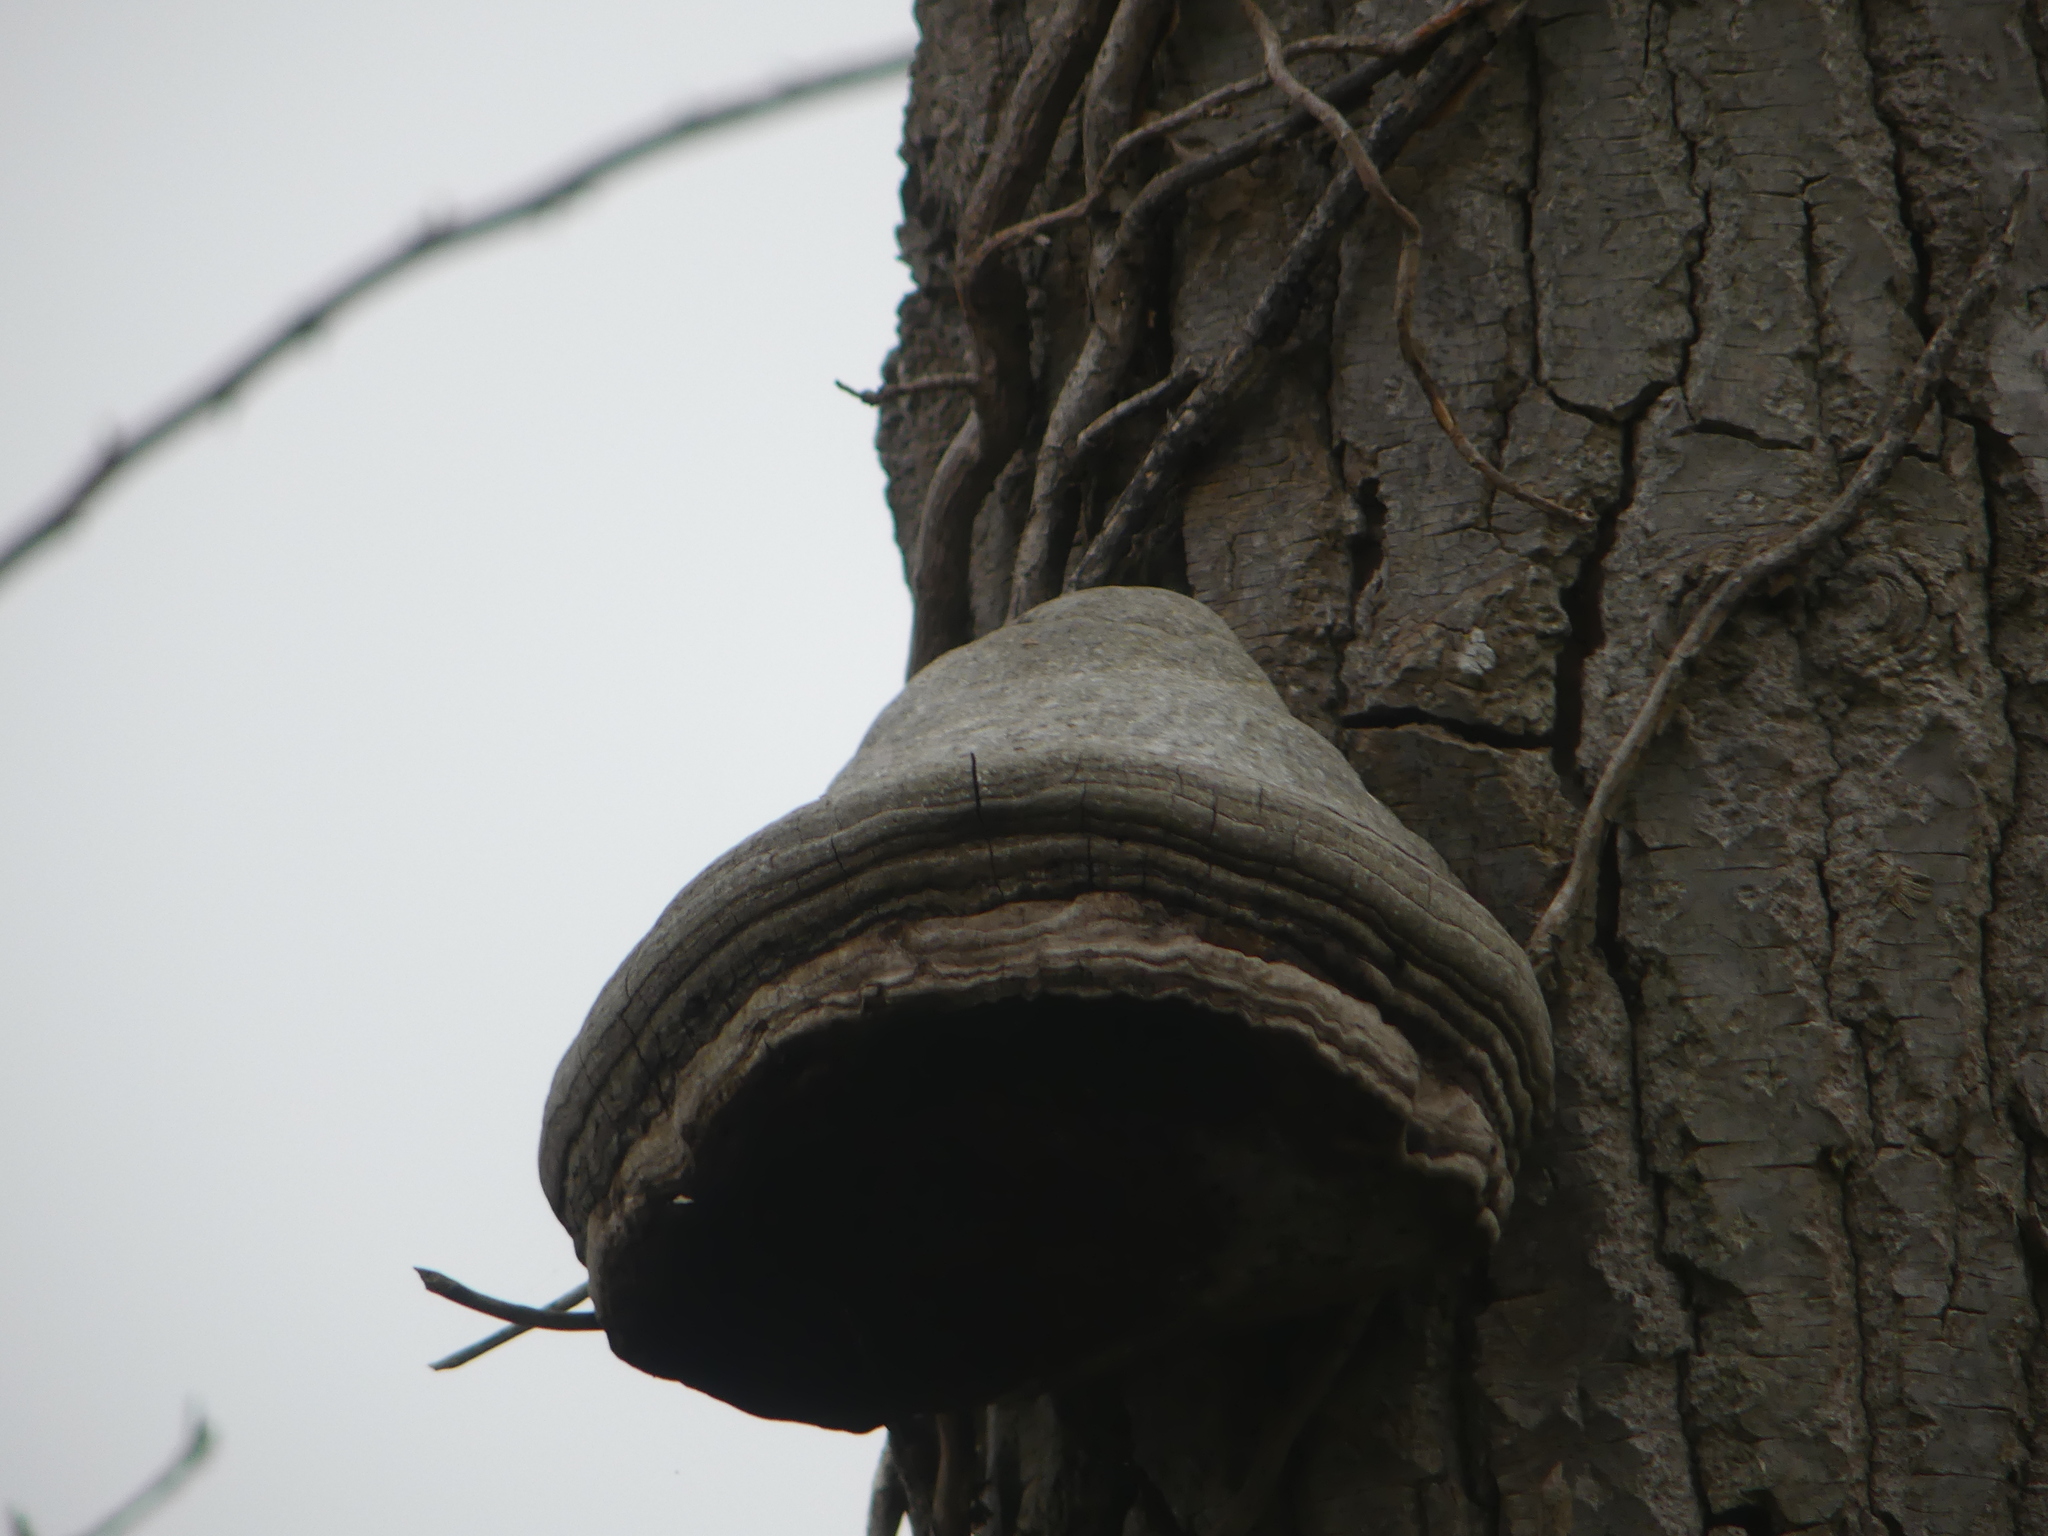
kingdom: Fungi
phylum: Basidiomycota
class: Agaricomycetes
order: Polyporales
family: Polyporaceae
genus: Fomes
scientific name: Fomes fomentarius
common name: Hoof fungus
